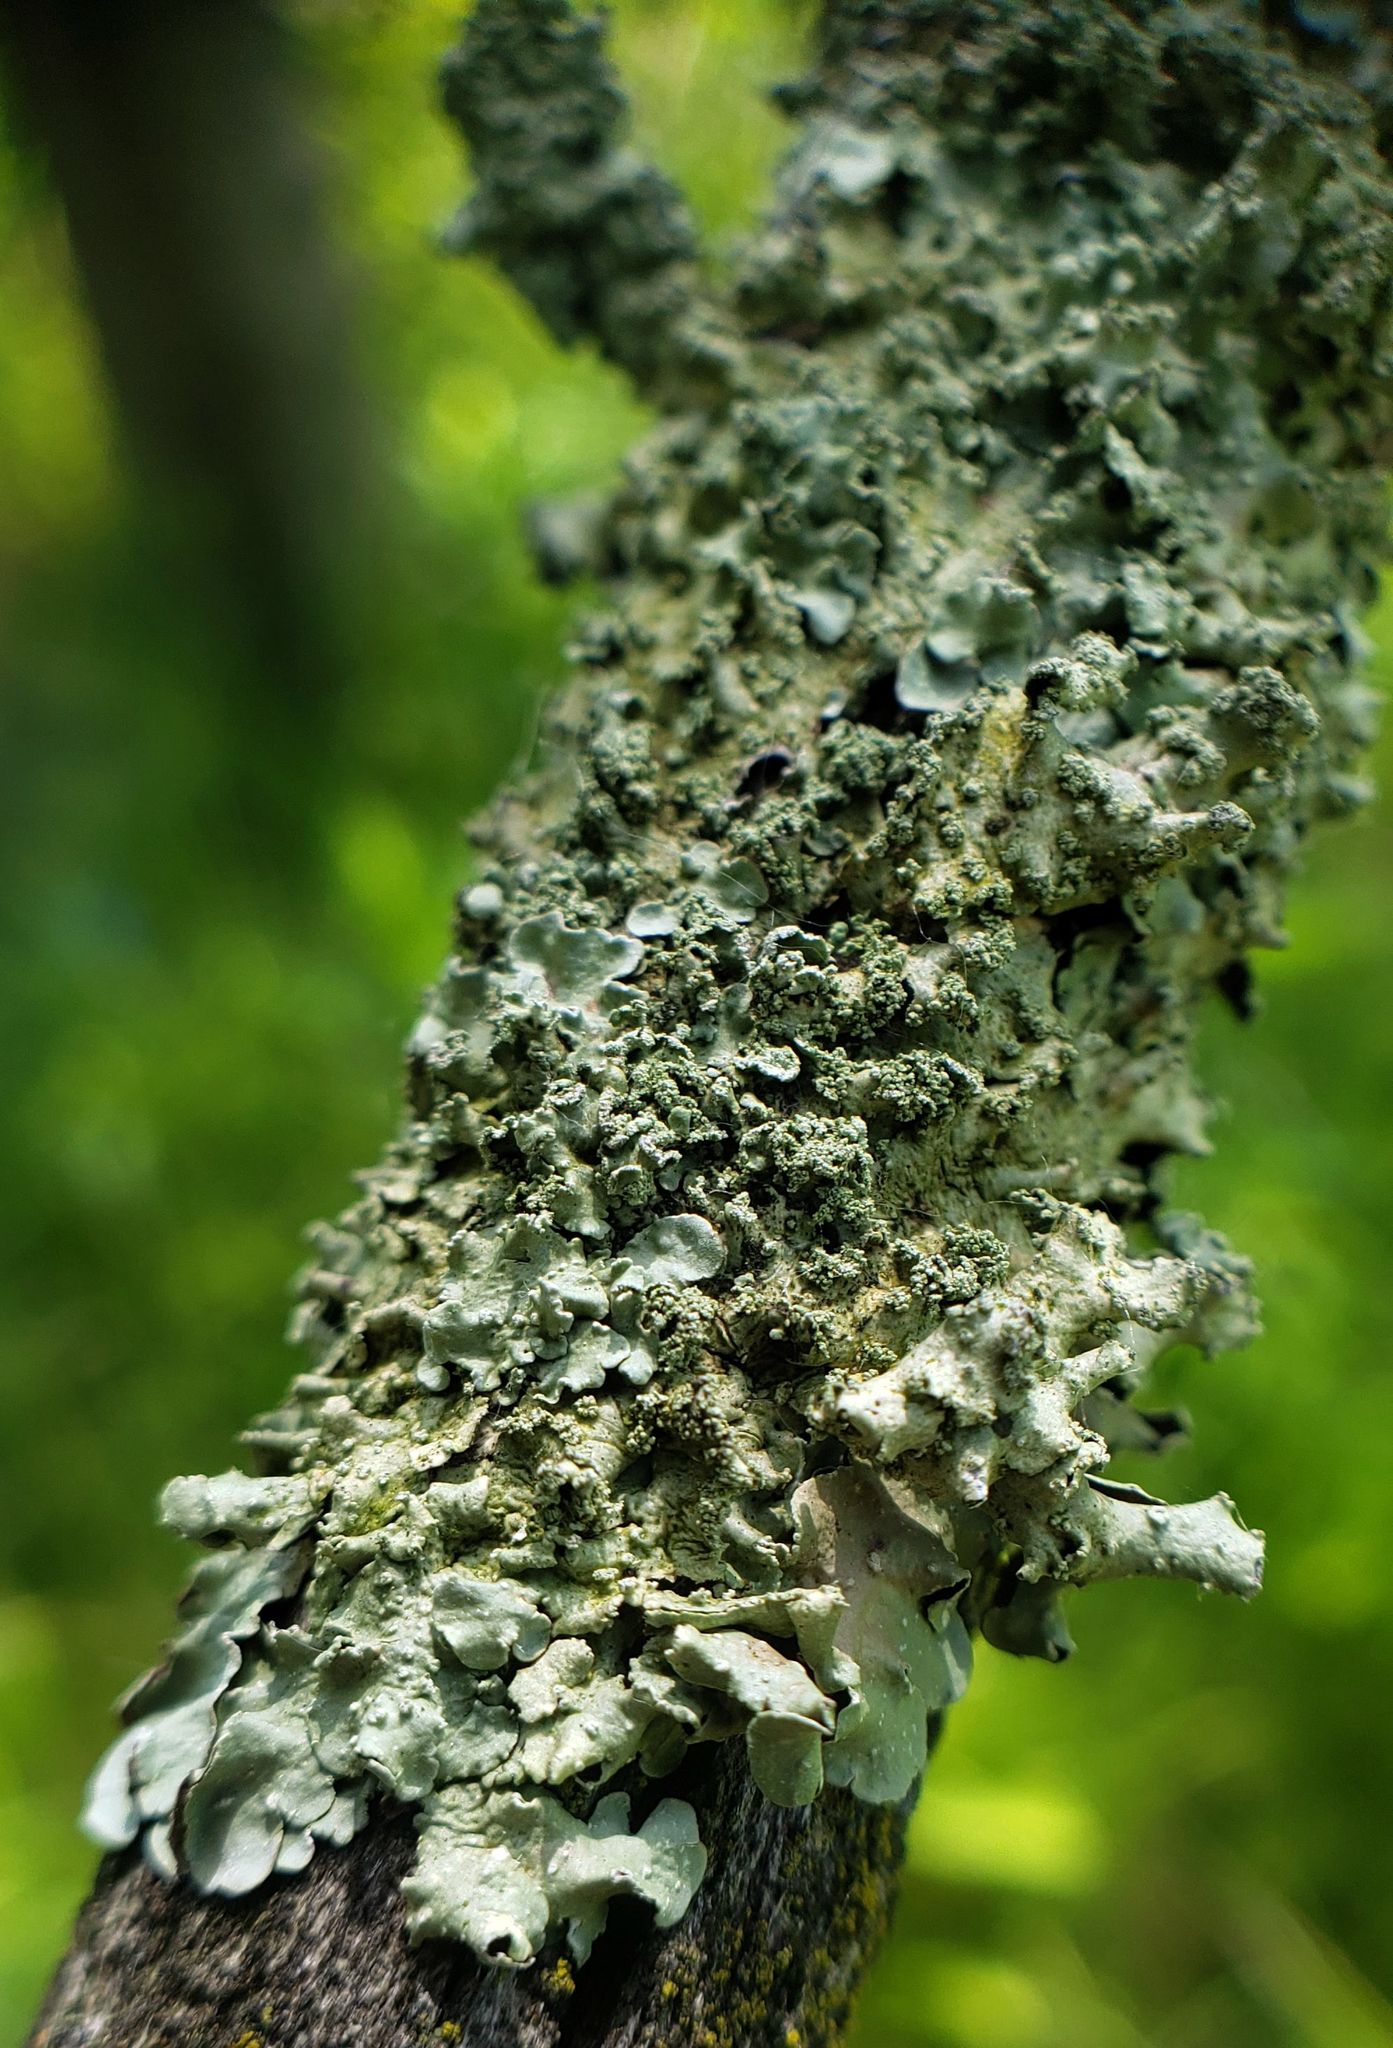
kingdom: Fungi
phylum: Ascomycota
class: Lecanoromycetes
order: Lecanorales
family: Parmeliaceae
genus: Flavopunctelia
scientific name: Flavopunctelia flaventior
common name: Speckled greenshield
